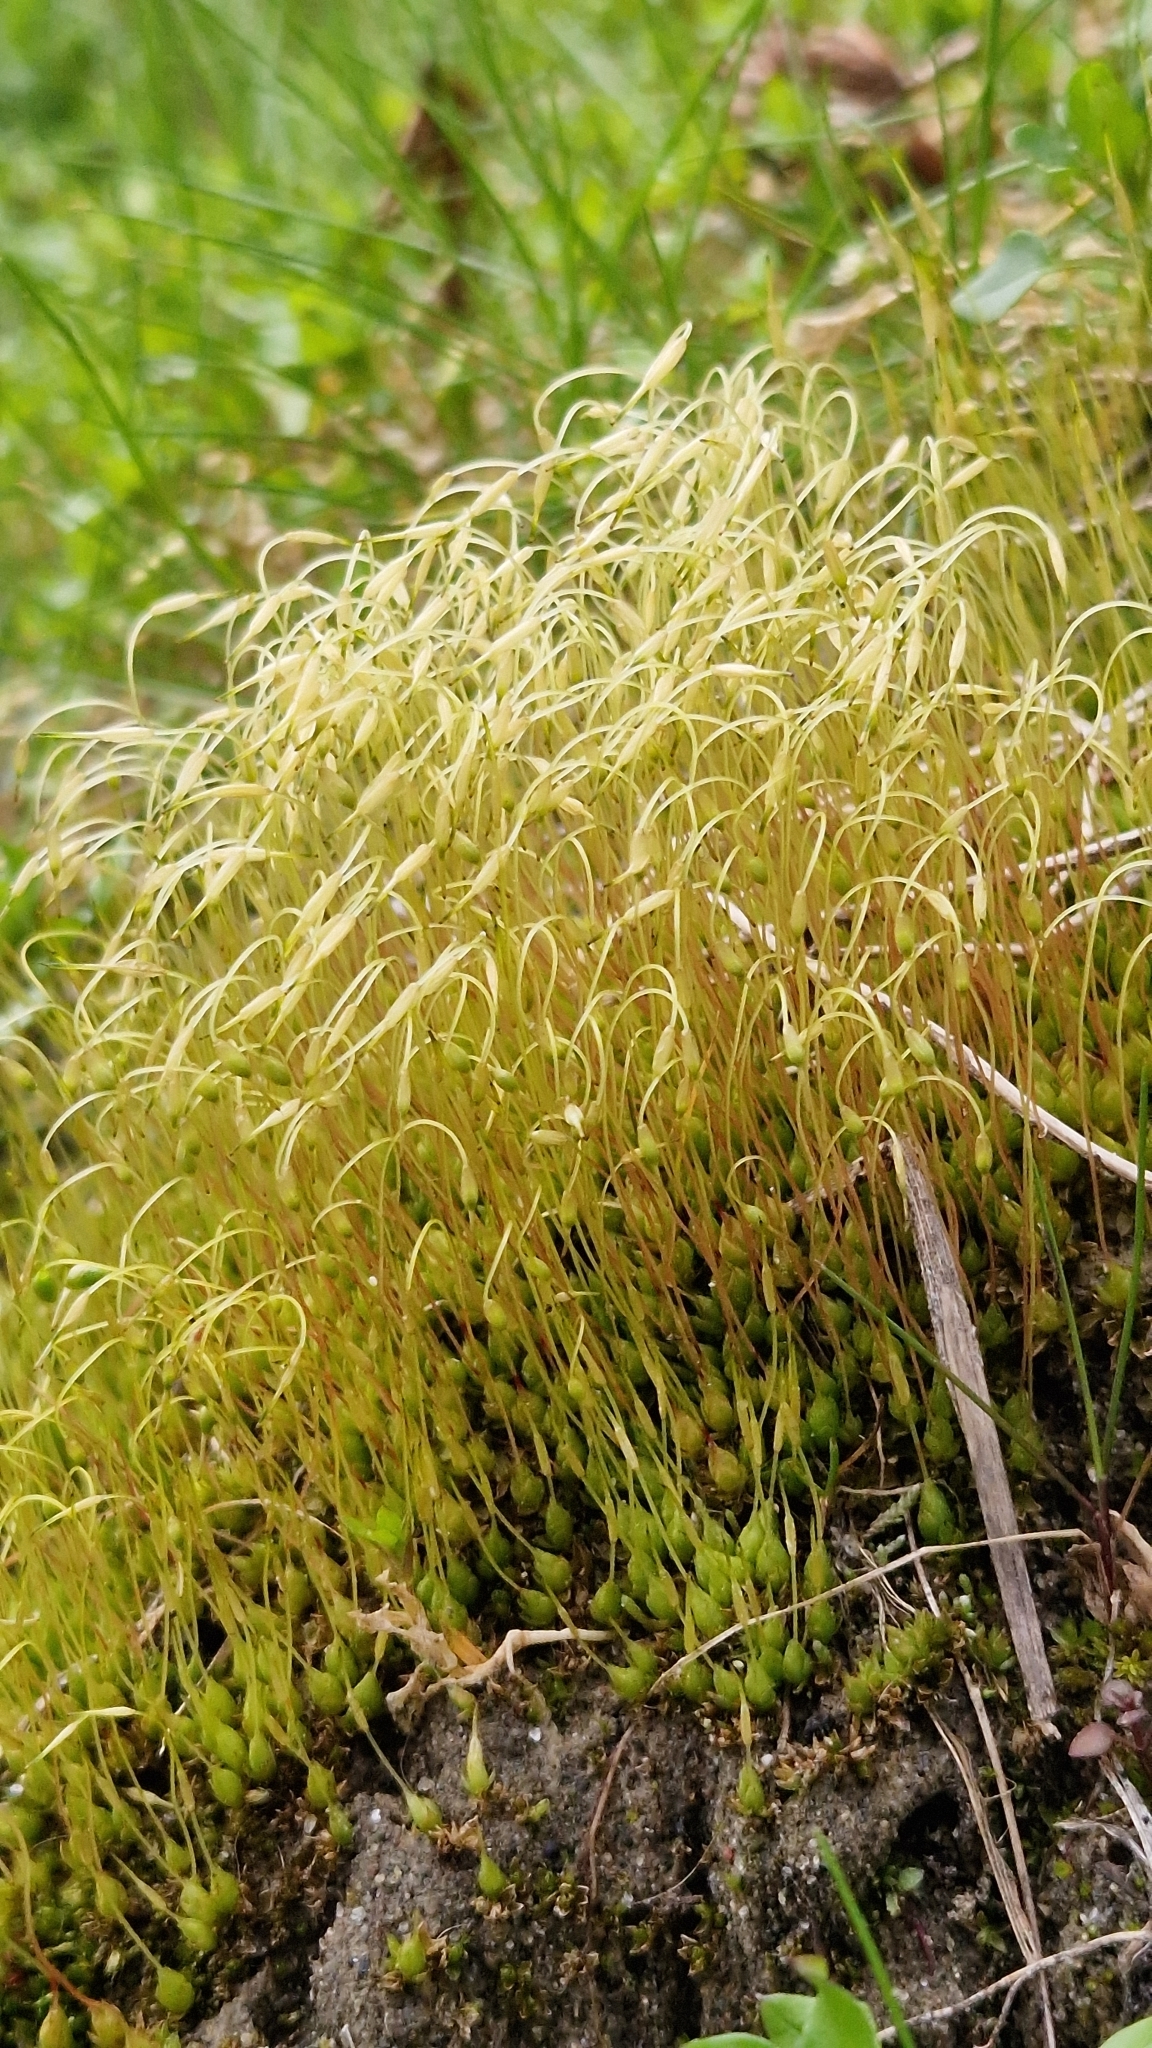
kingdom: Plantae
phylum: Bryophyta
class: Bryopsida
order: Funariales
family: Funariaceae
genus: Funaria
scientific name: Funaria hygrometrica
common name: Common cord moss
